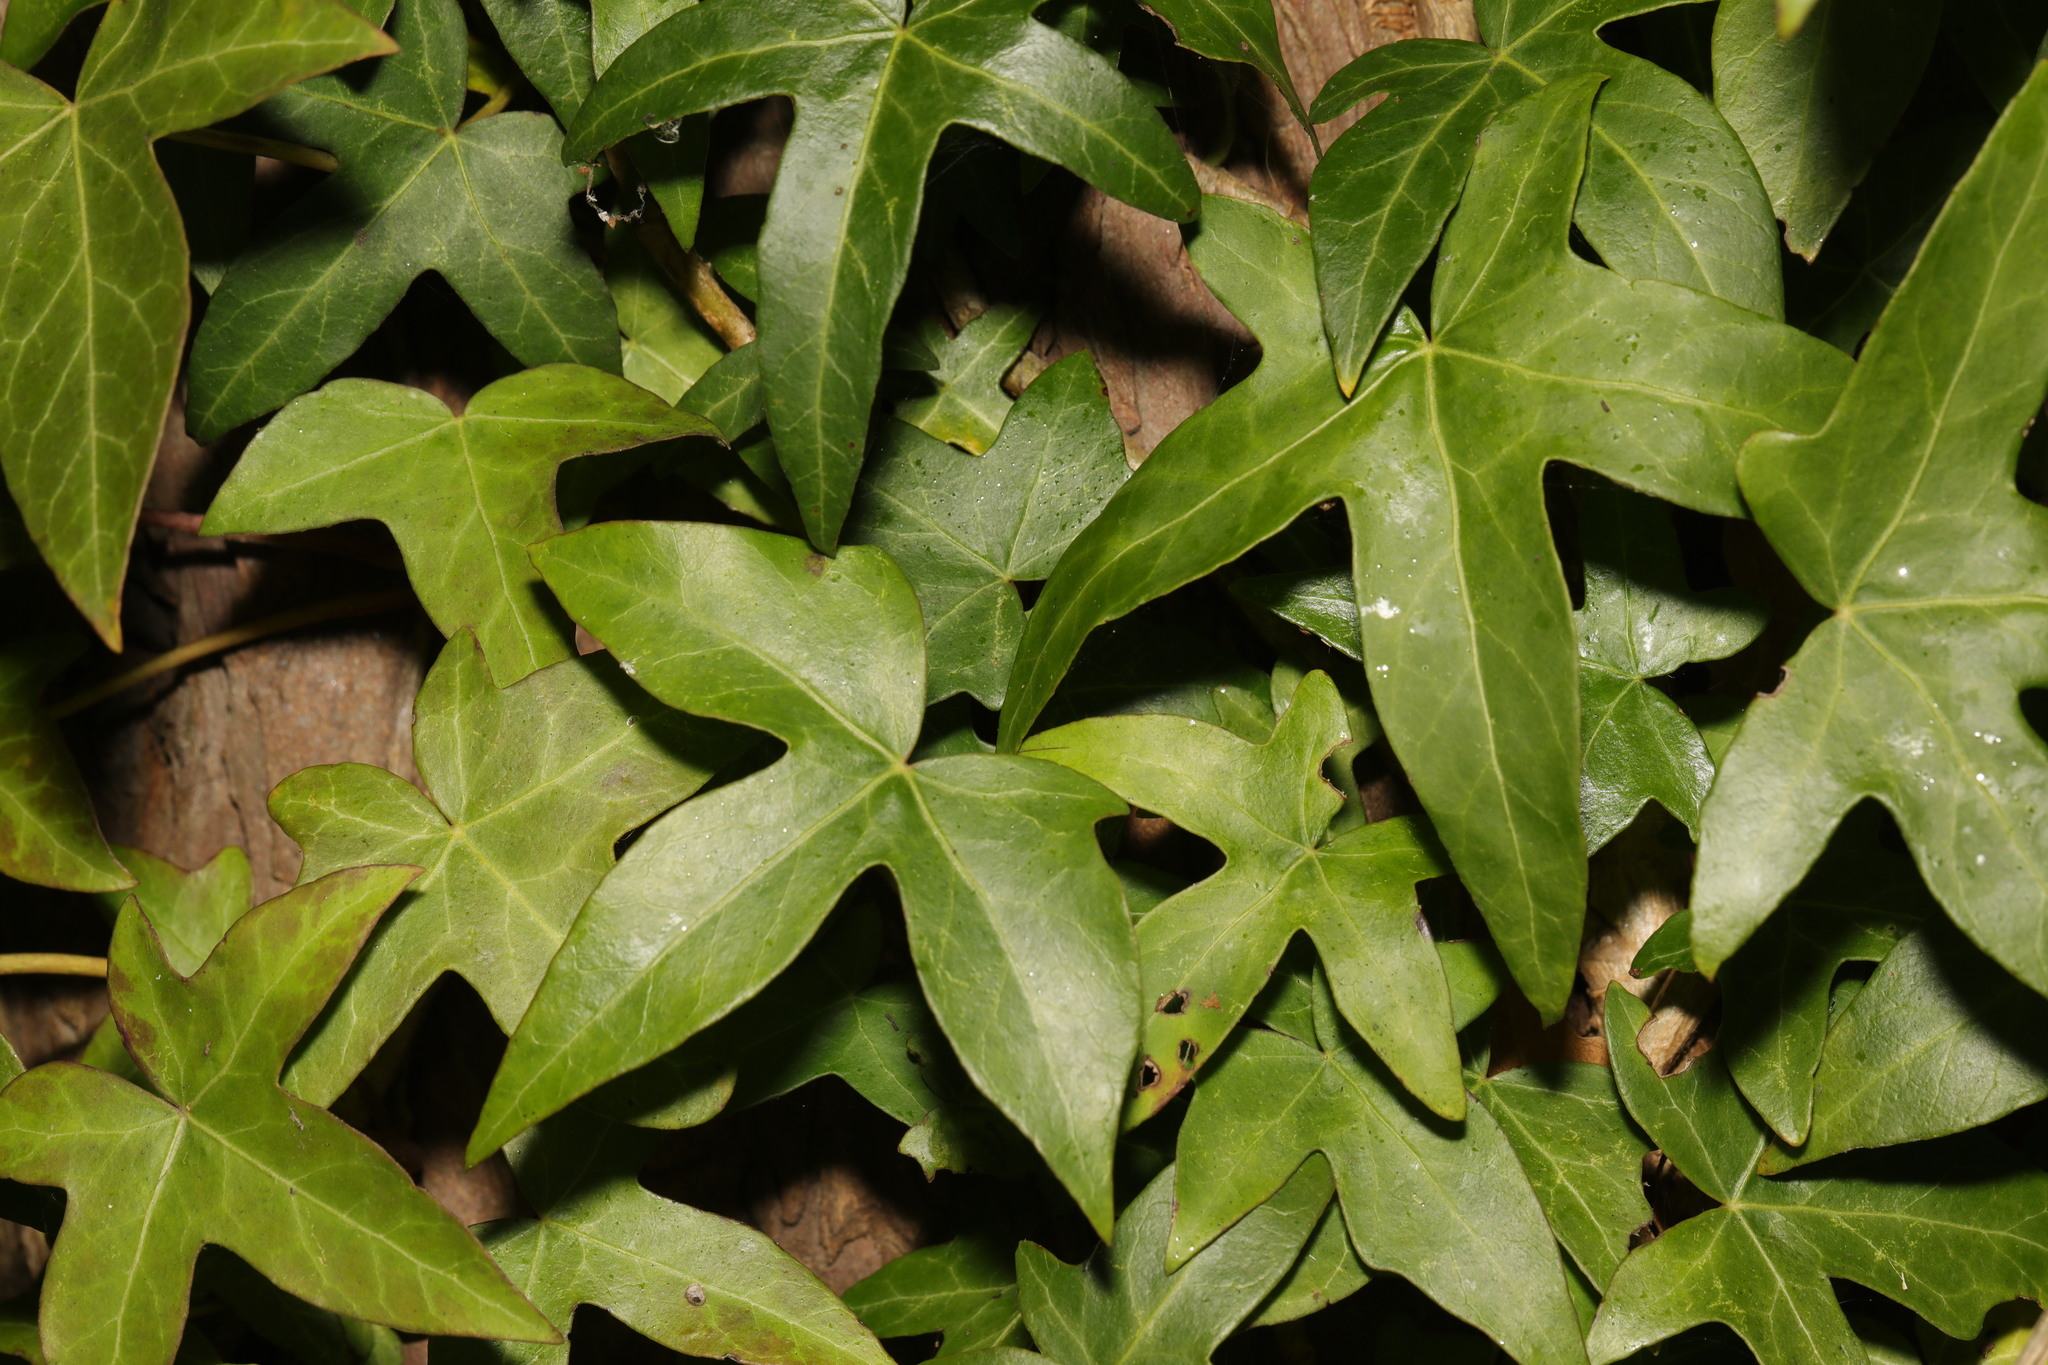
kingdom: Plantae
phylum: Tracheophyta
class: Magnoliopsida
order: Apiales
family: Araliaceae
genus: Hedera
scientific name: Hedera helix
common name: Ivy
